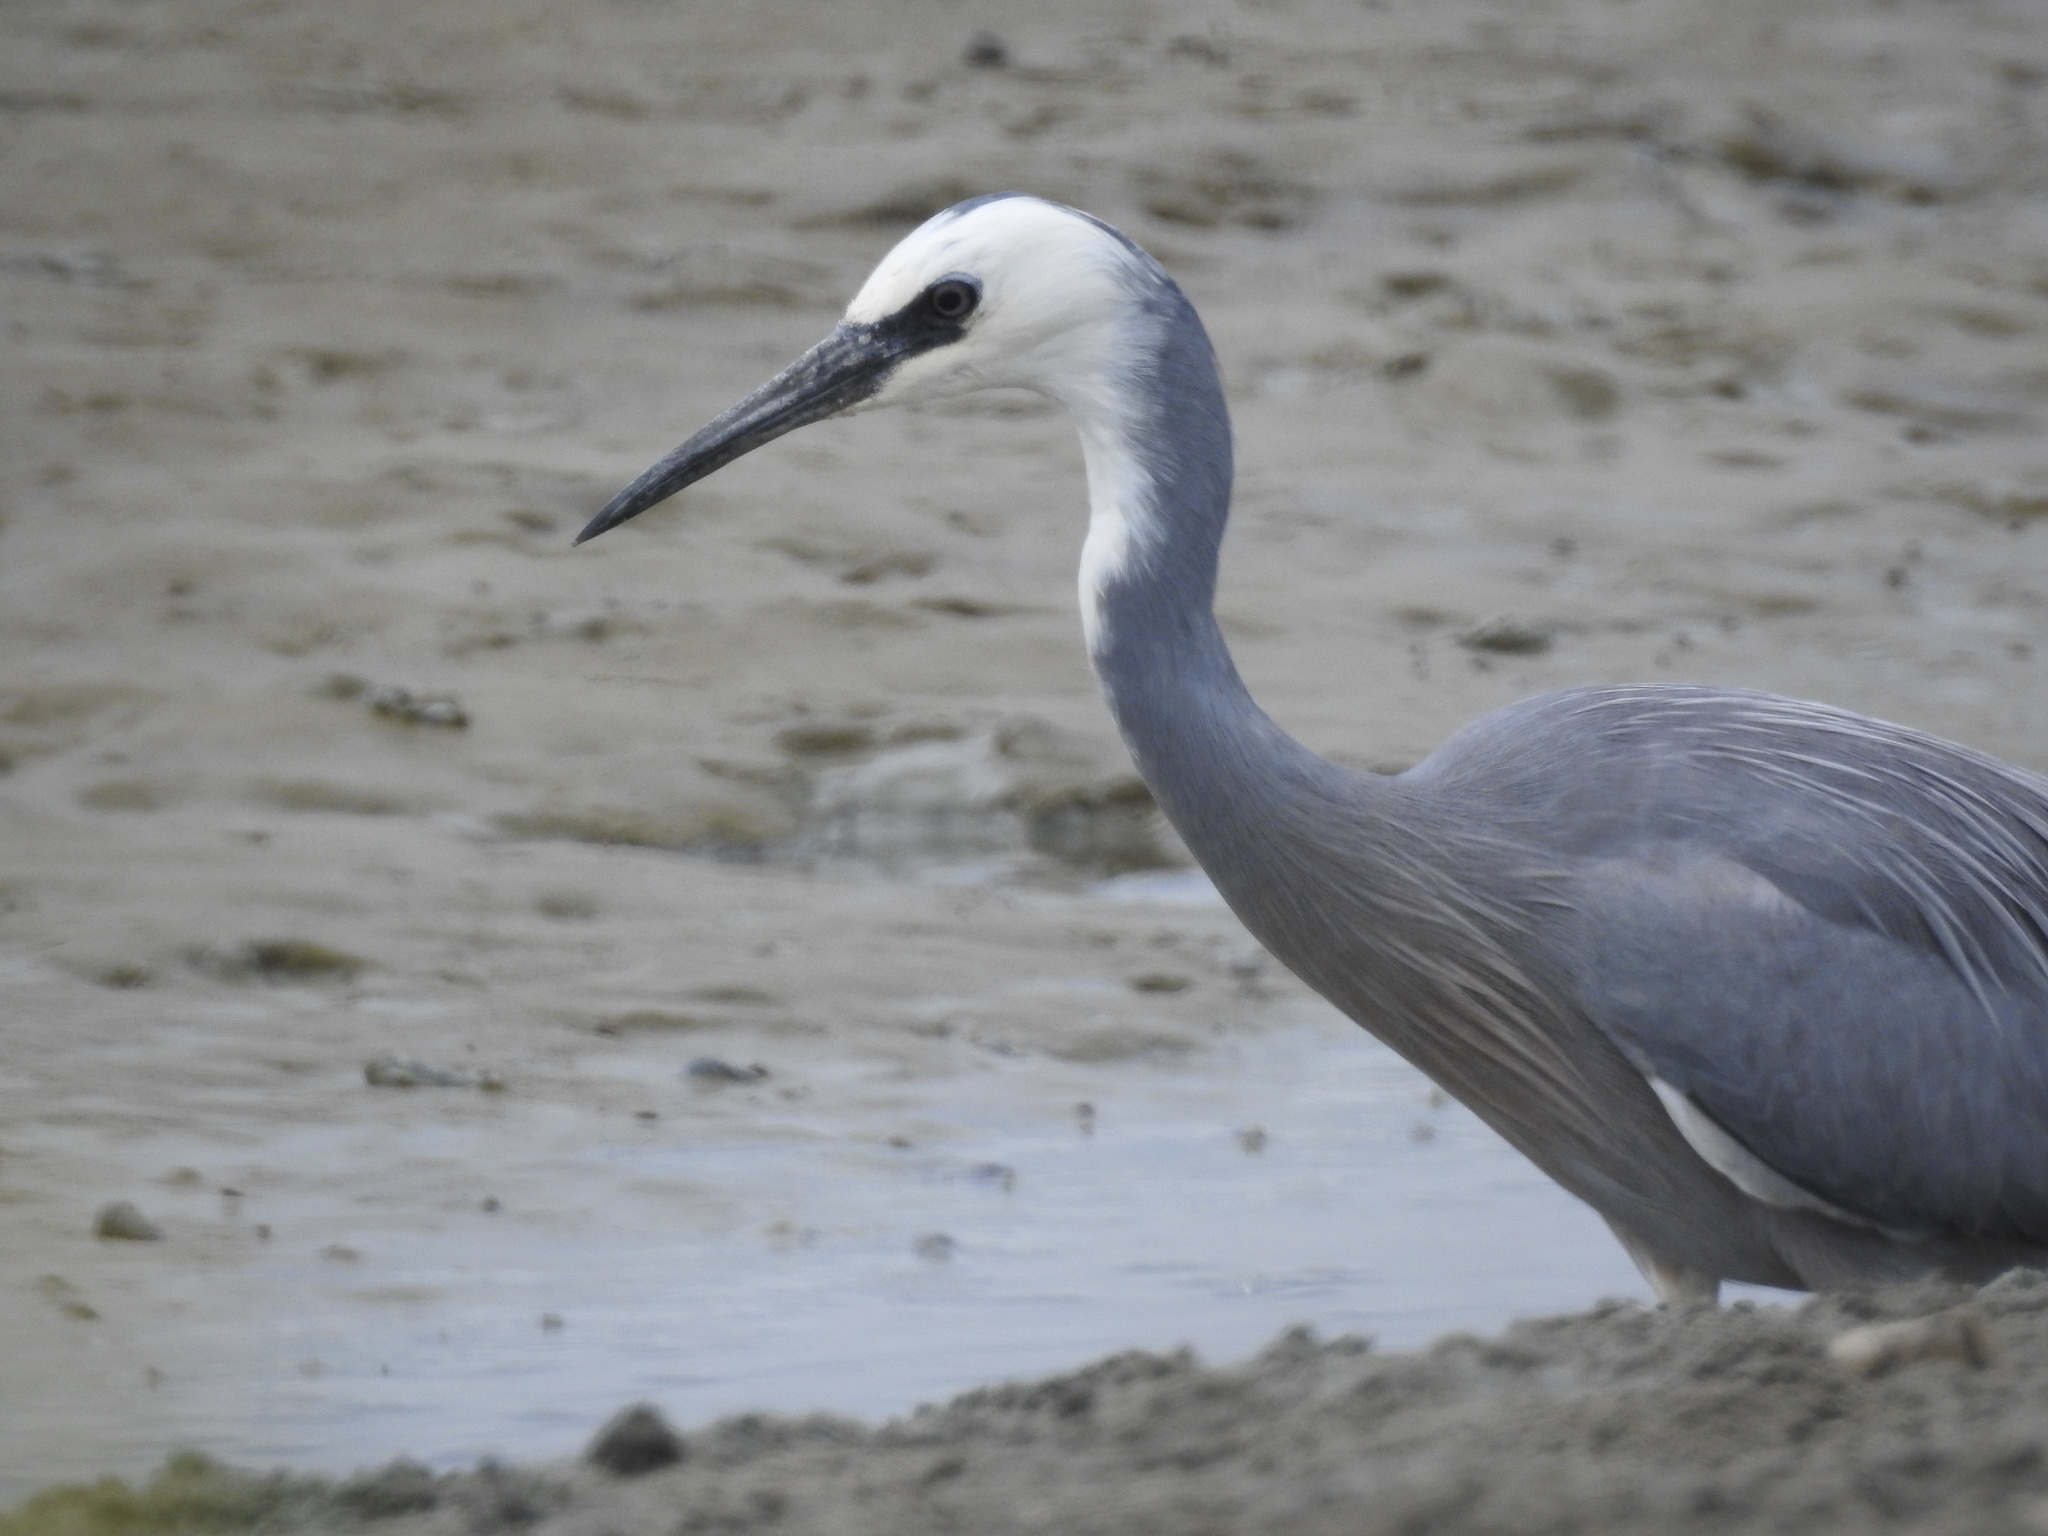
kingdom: Animalia
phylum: Chordata
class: Aves
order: Pelecaniformes
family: Ardeidae
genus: Egretta
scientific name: Egretta novaehollandiae
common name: White-faced heron
